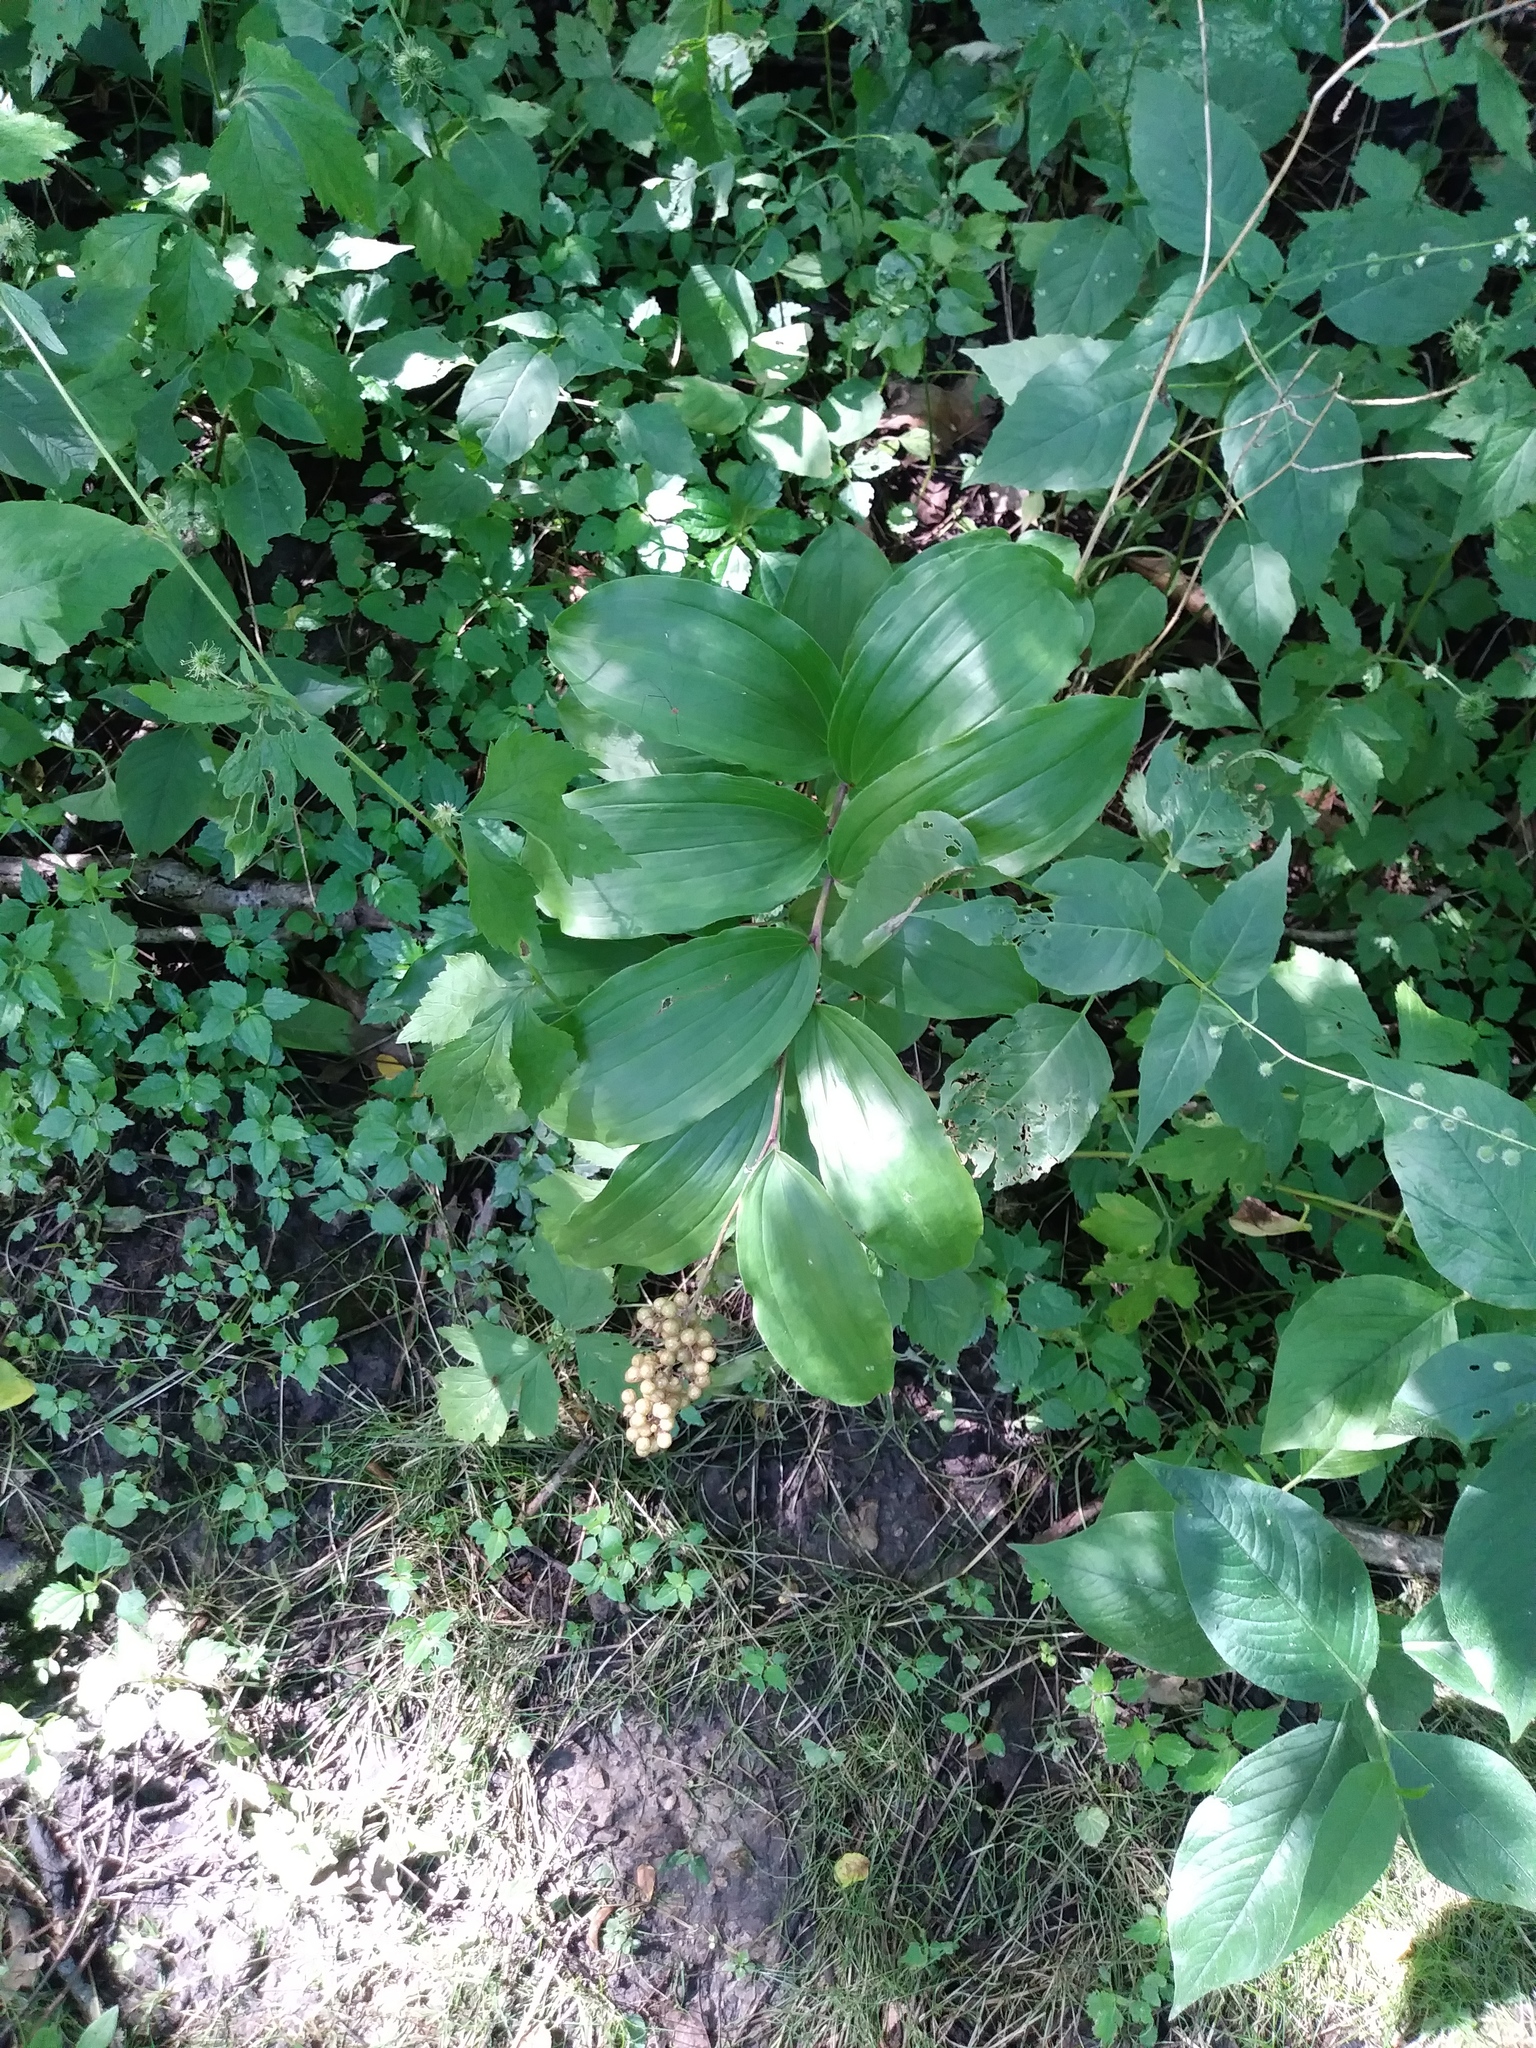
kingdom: Plantae
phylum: Tracheophyta
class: Liliopsida
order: Asparagales
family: Asparagaceae
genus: Maianthemum
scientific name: Maianthemum racemosum
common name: False spikenard
